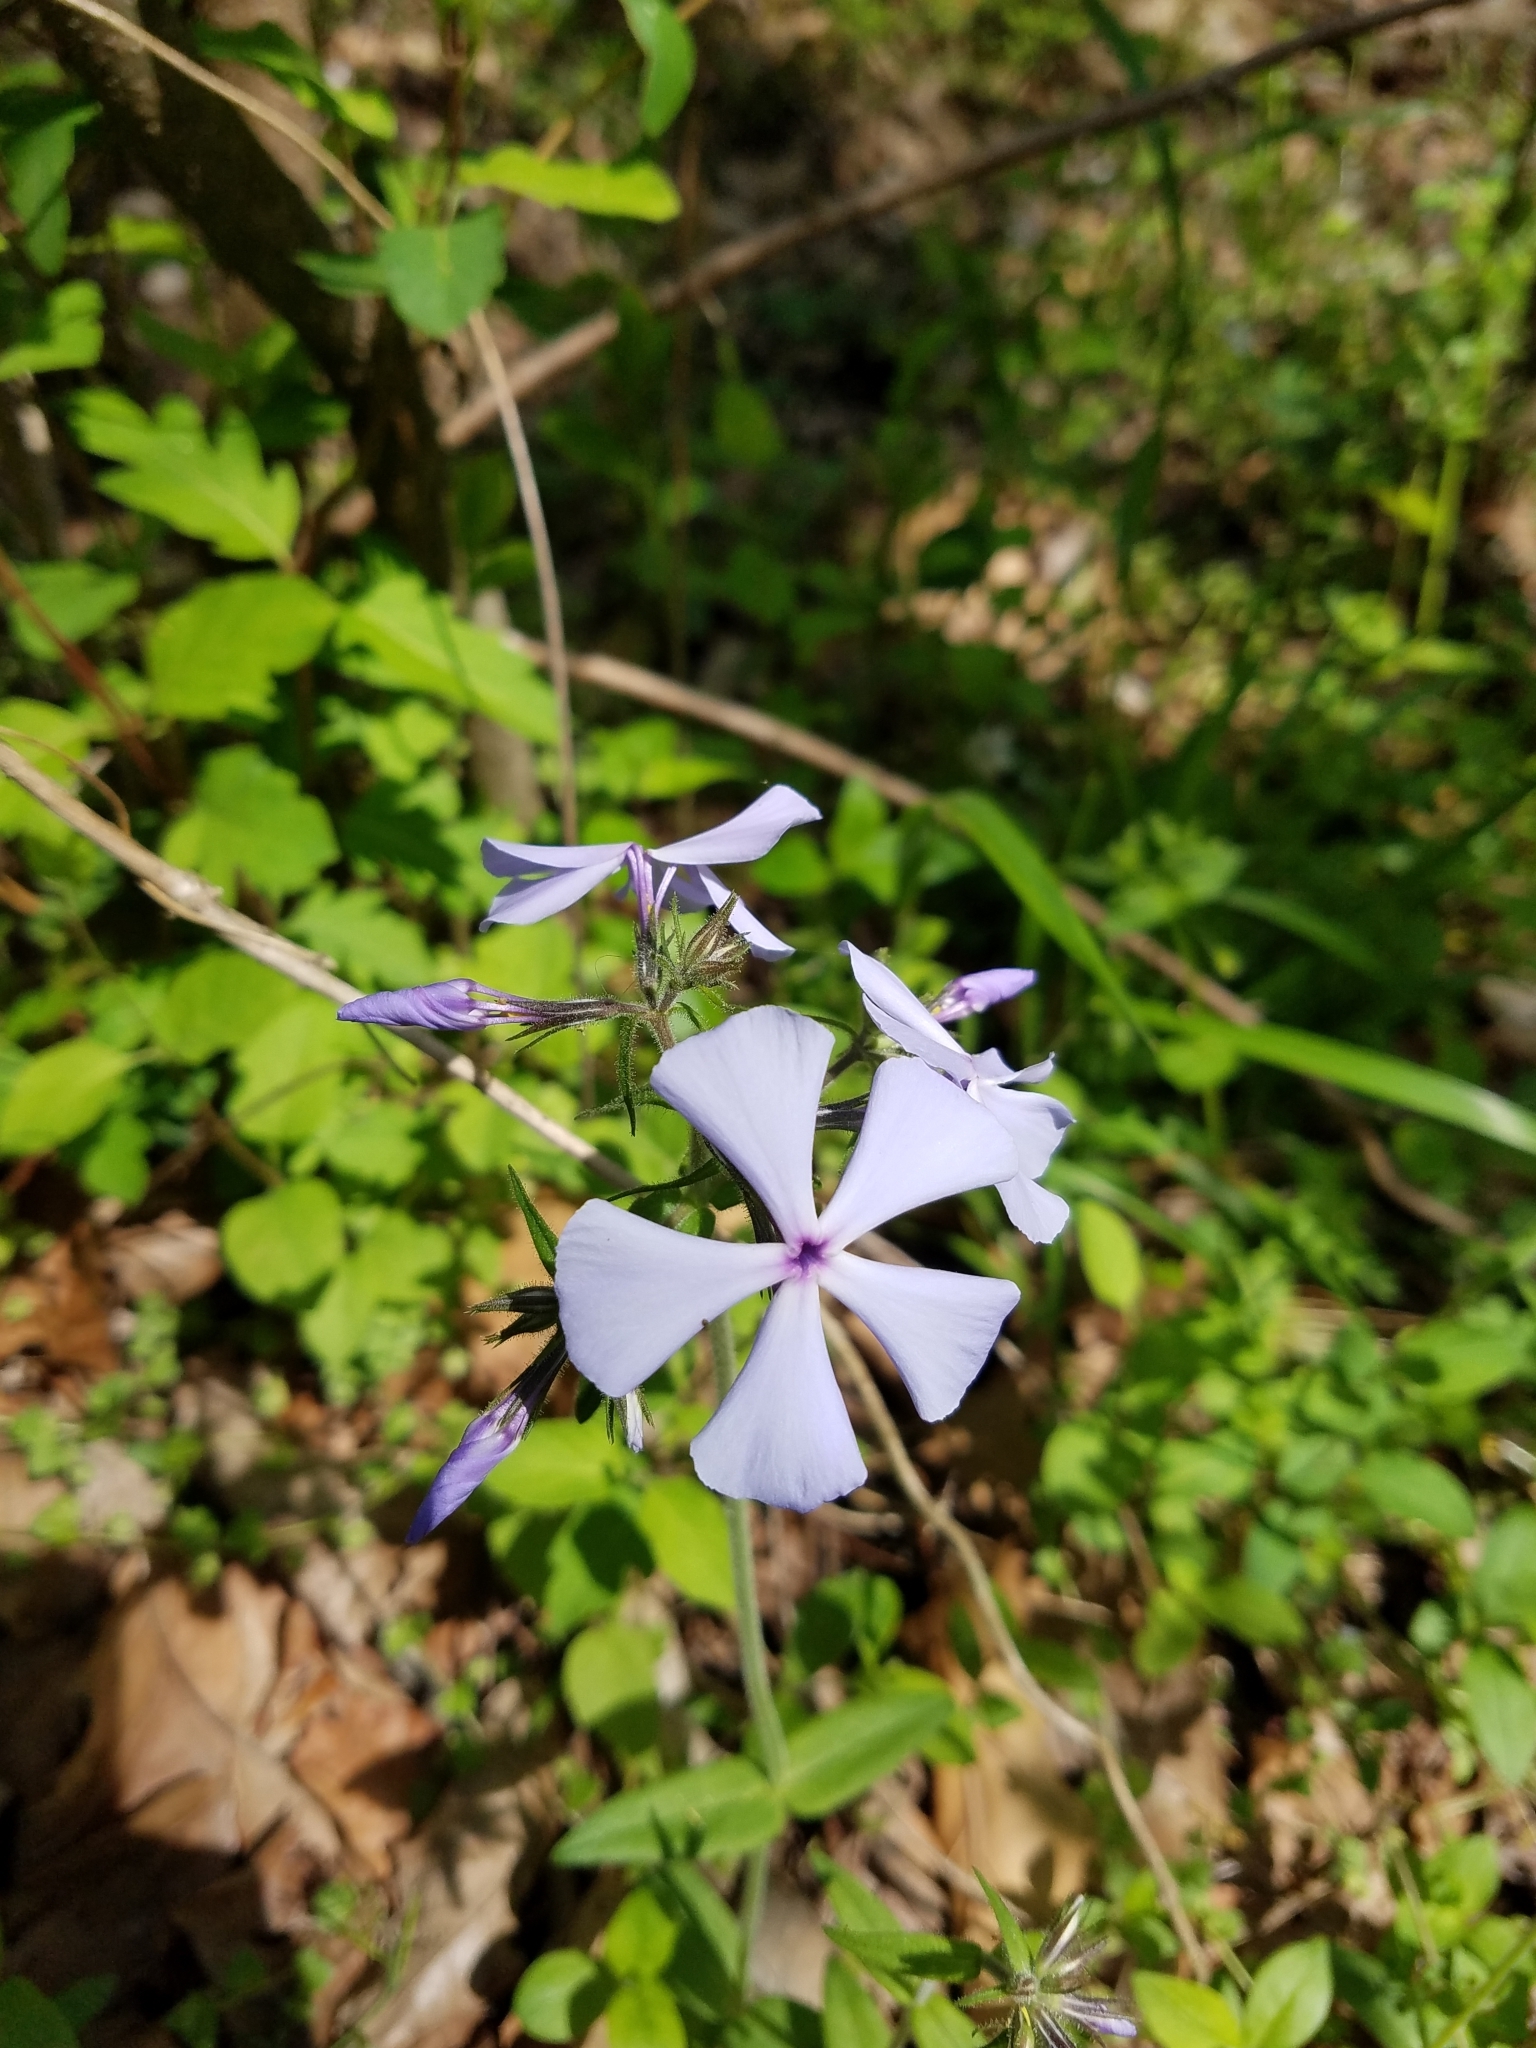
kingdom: Plantae
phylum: Tracheophyta
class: Magnoliopsida
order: Ericales
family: Polemoniaceae
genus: Phlox
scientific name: Phlox divaricata
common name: Blue phlox
